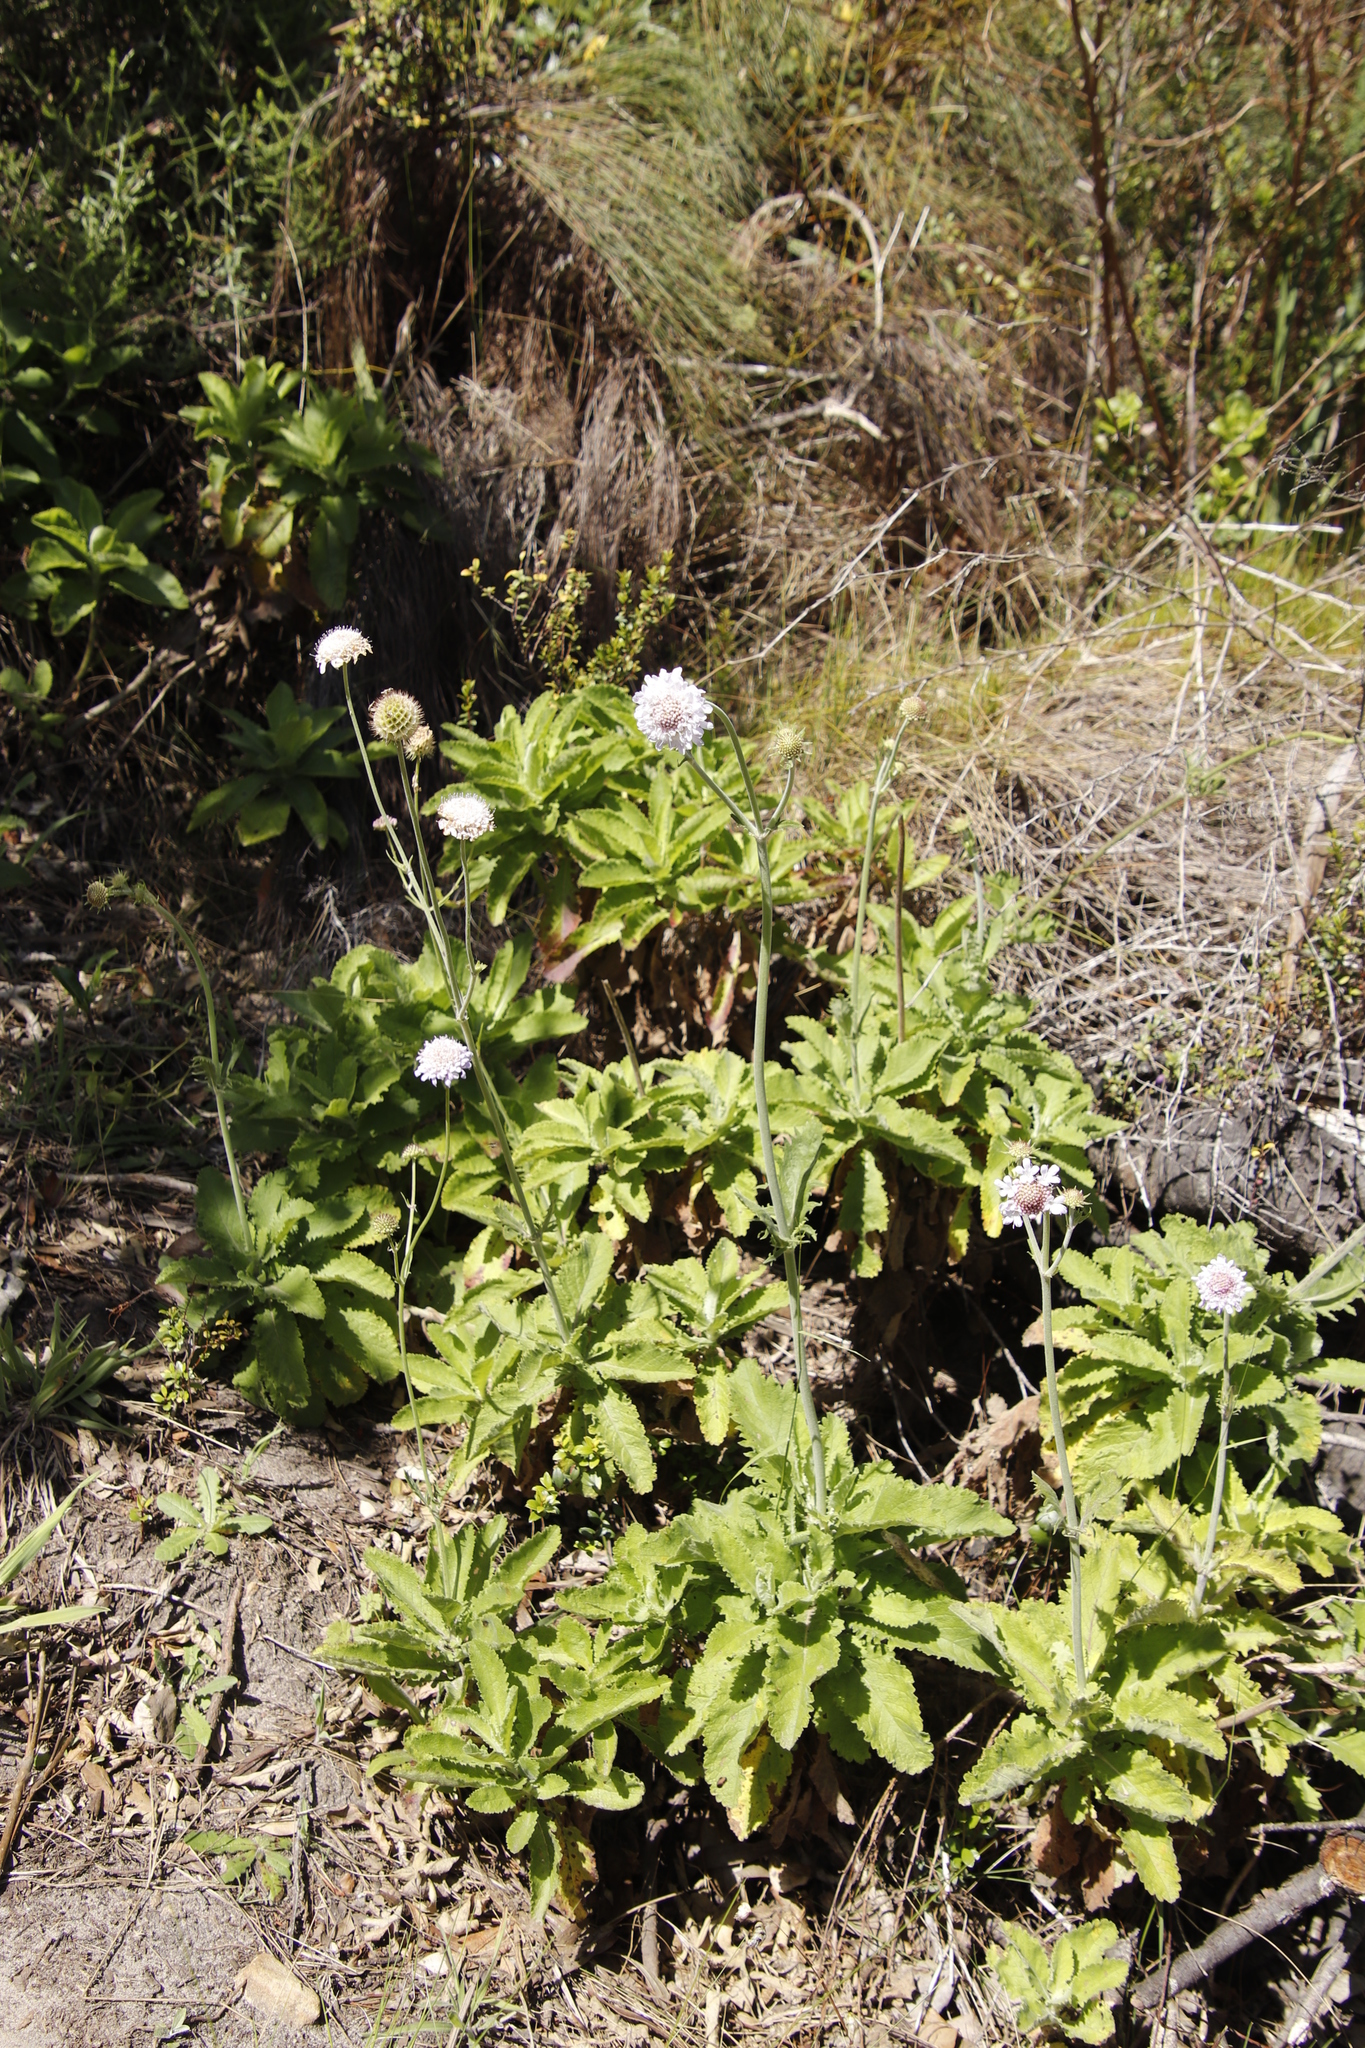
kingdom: Plantae
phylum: Tracheophyta
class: Magnoliopsida
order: Dipsacales
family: Caprifoliaceae
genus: Scabiosa
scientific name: Scabiosa africana
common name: Cape scabious
